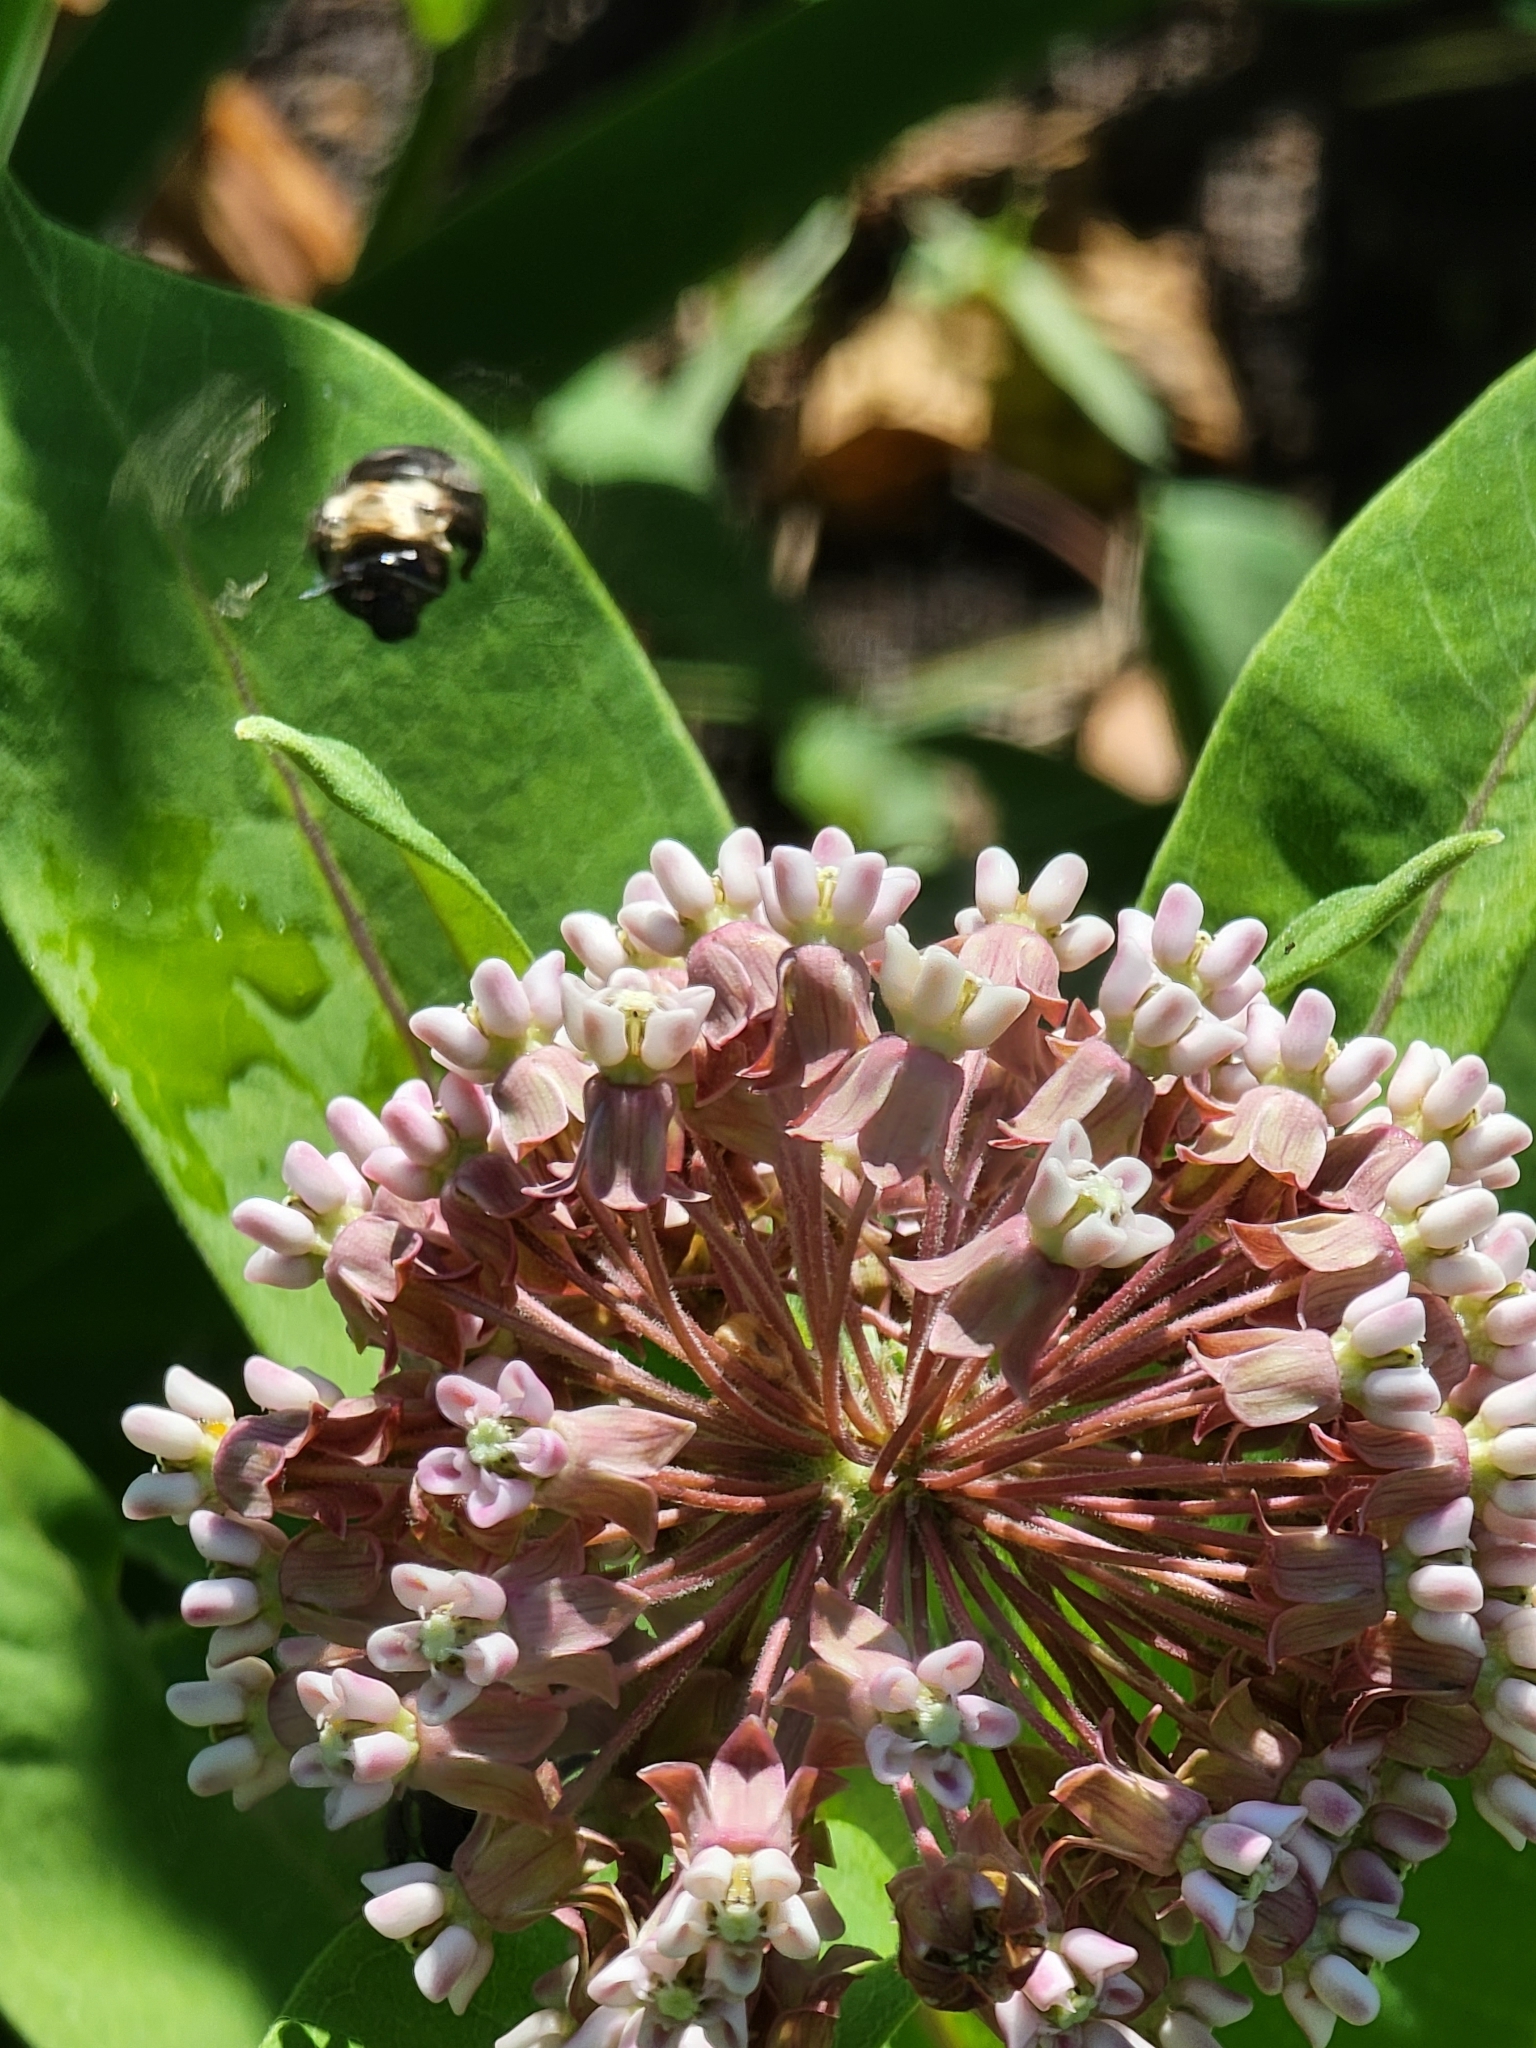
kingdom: Plantae
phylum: Tracheophyta
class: Magnoliopsida
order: Gentianales
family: Apocynaceae
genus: Asclepias
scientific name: Asclepias syriaca
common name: Common milkweed
